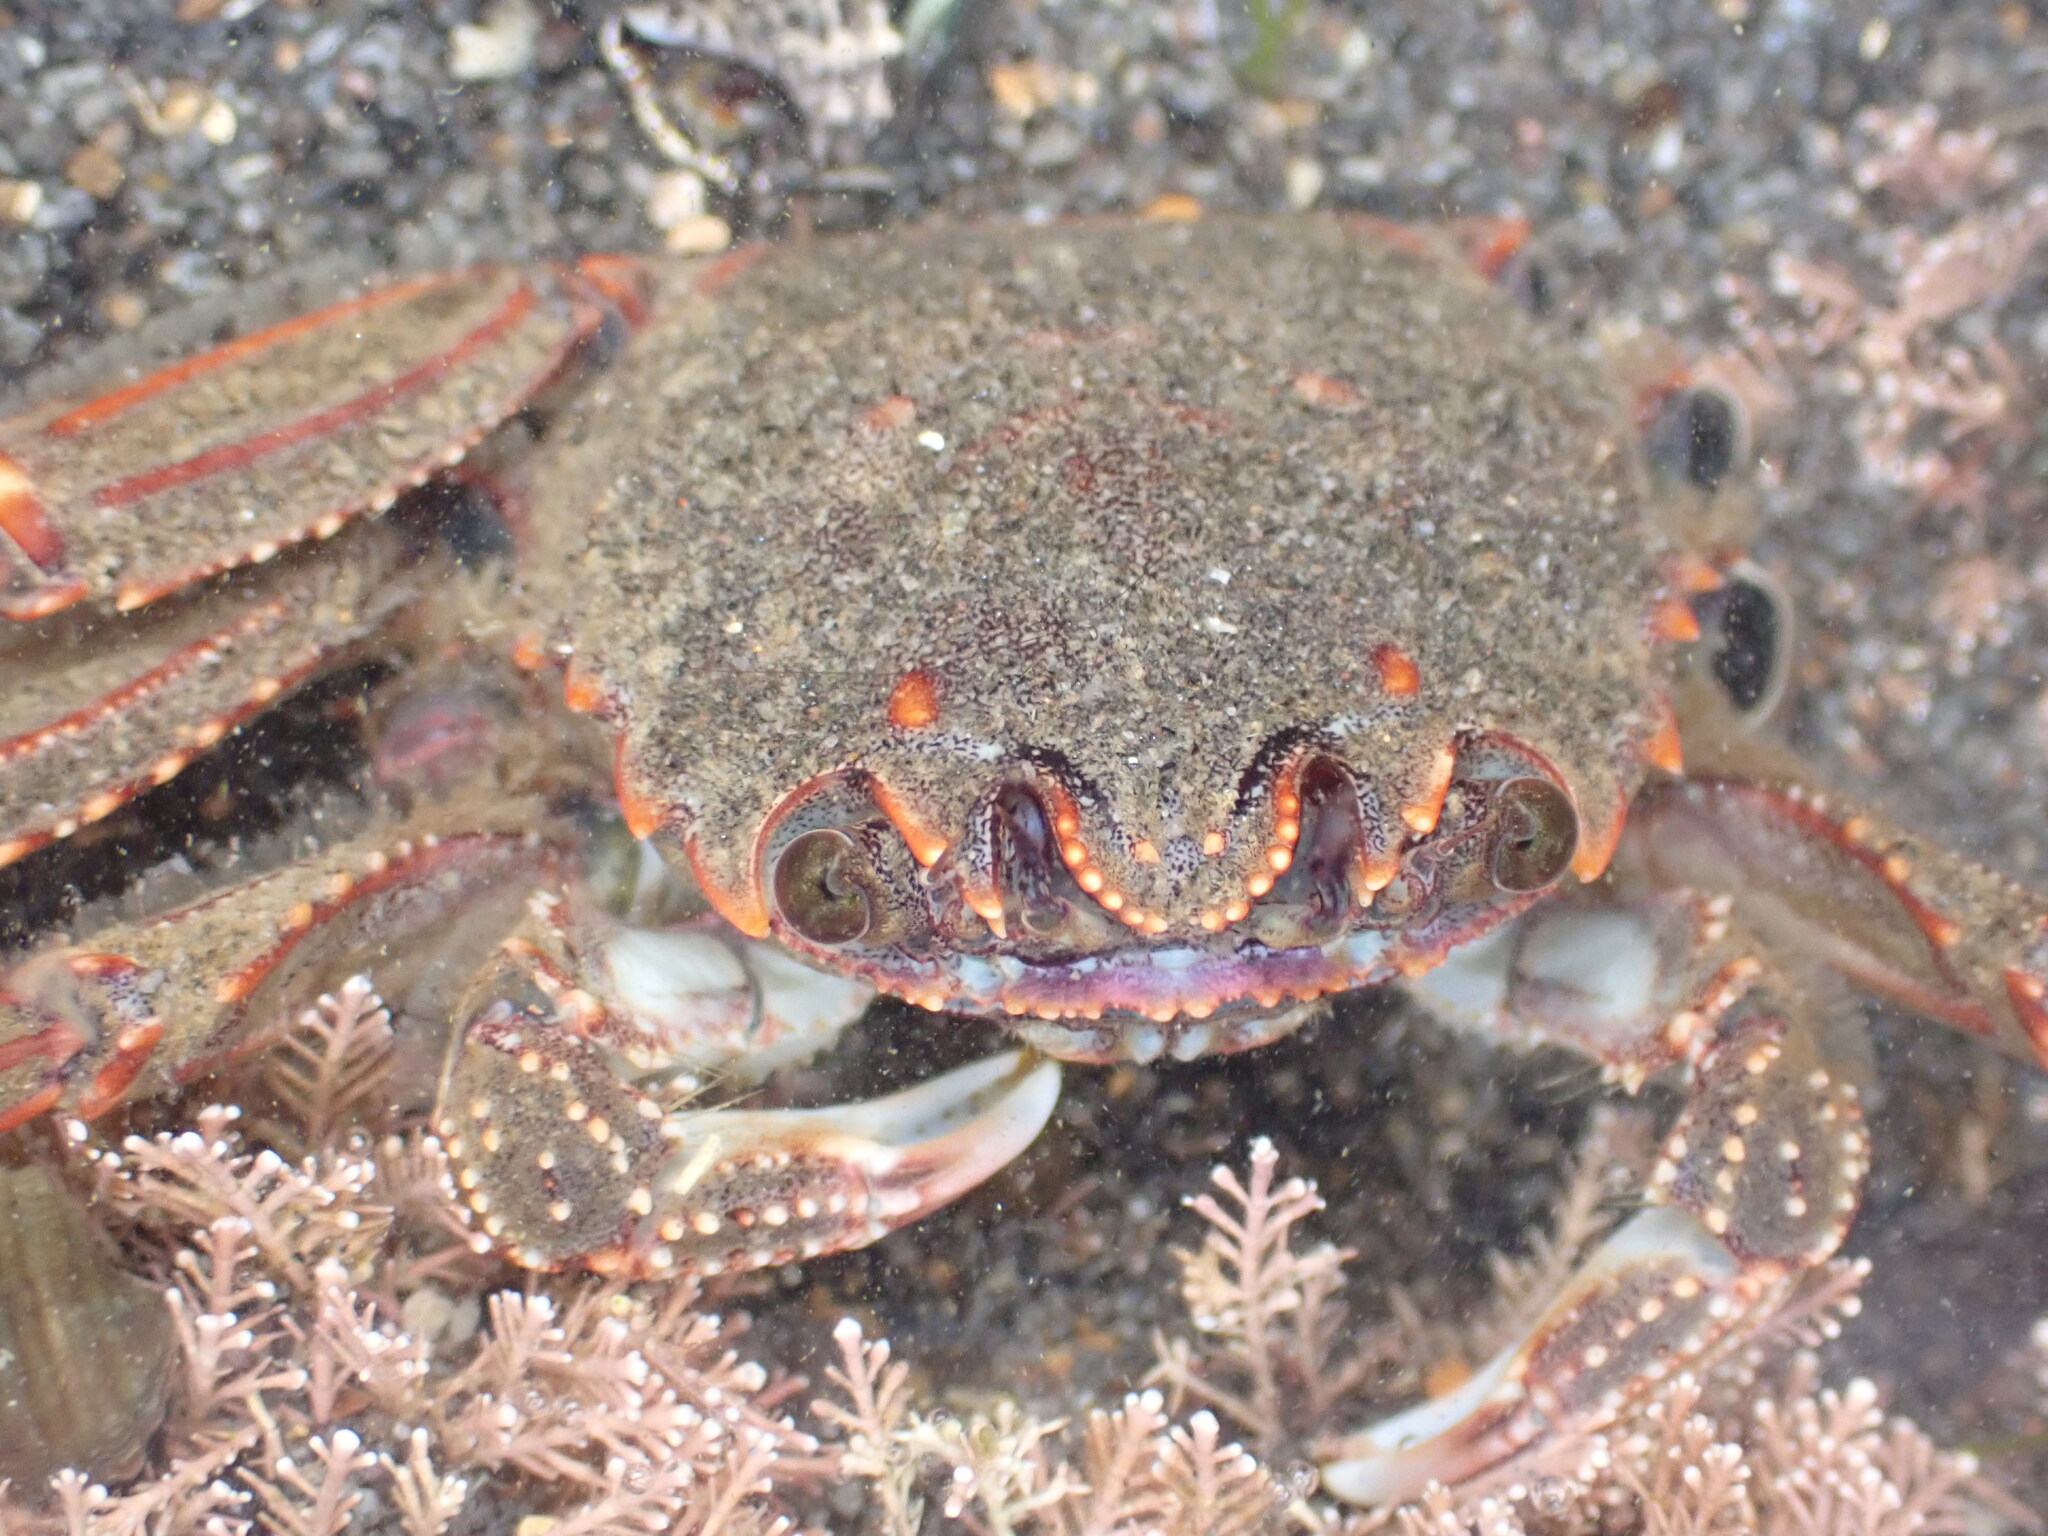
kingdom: Animalia
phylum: Arthropoda
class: Malacostraca
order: Decapoda
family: Plagusiidae
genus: Guinusia
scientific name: Guinusia chabrus
